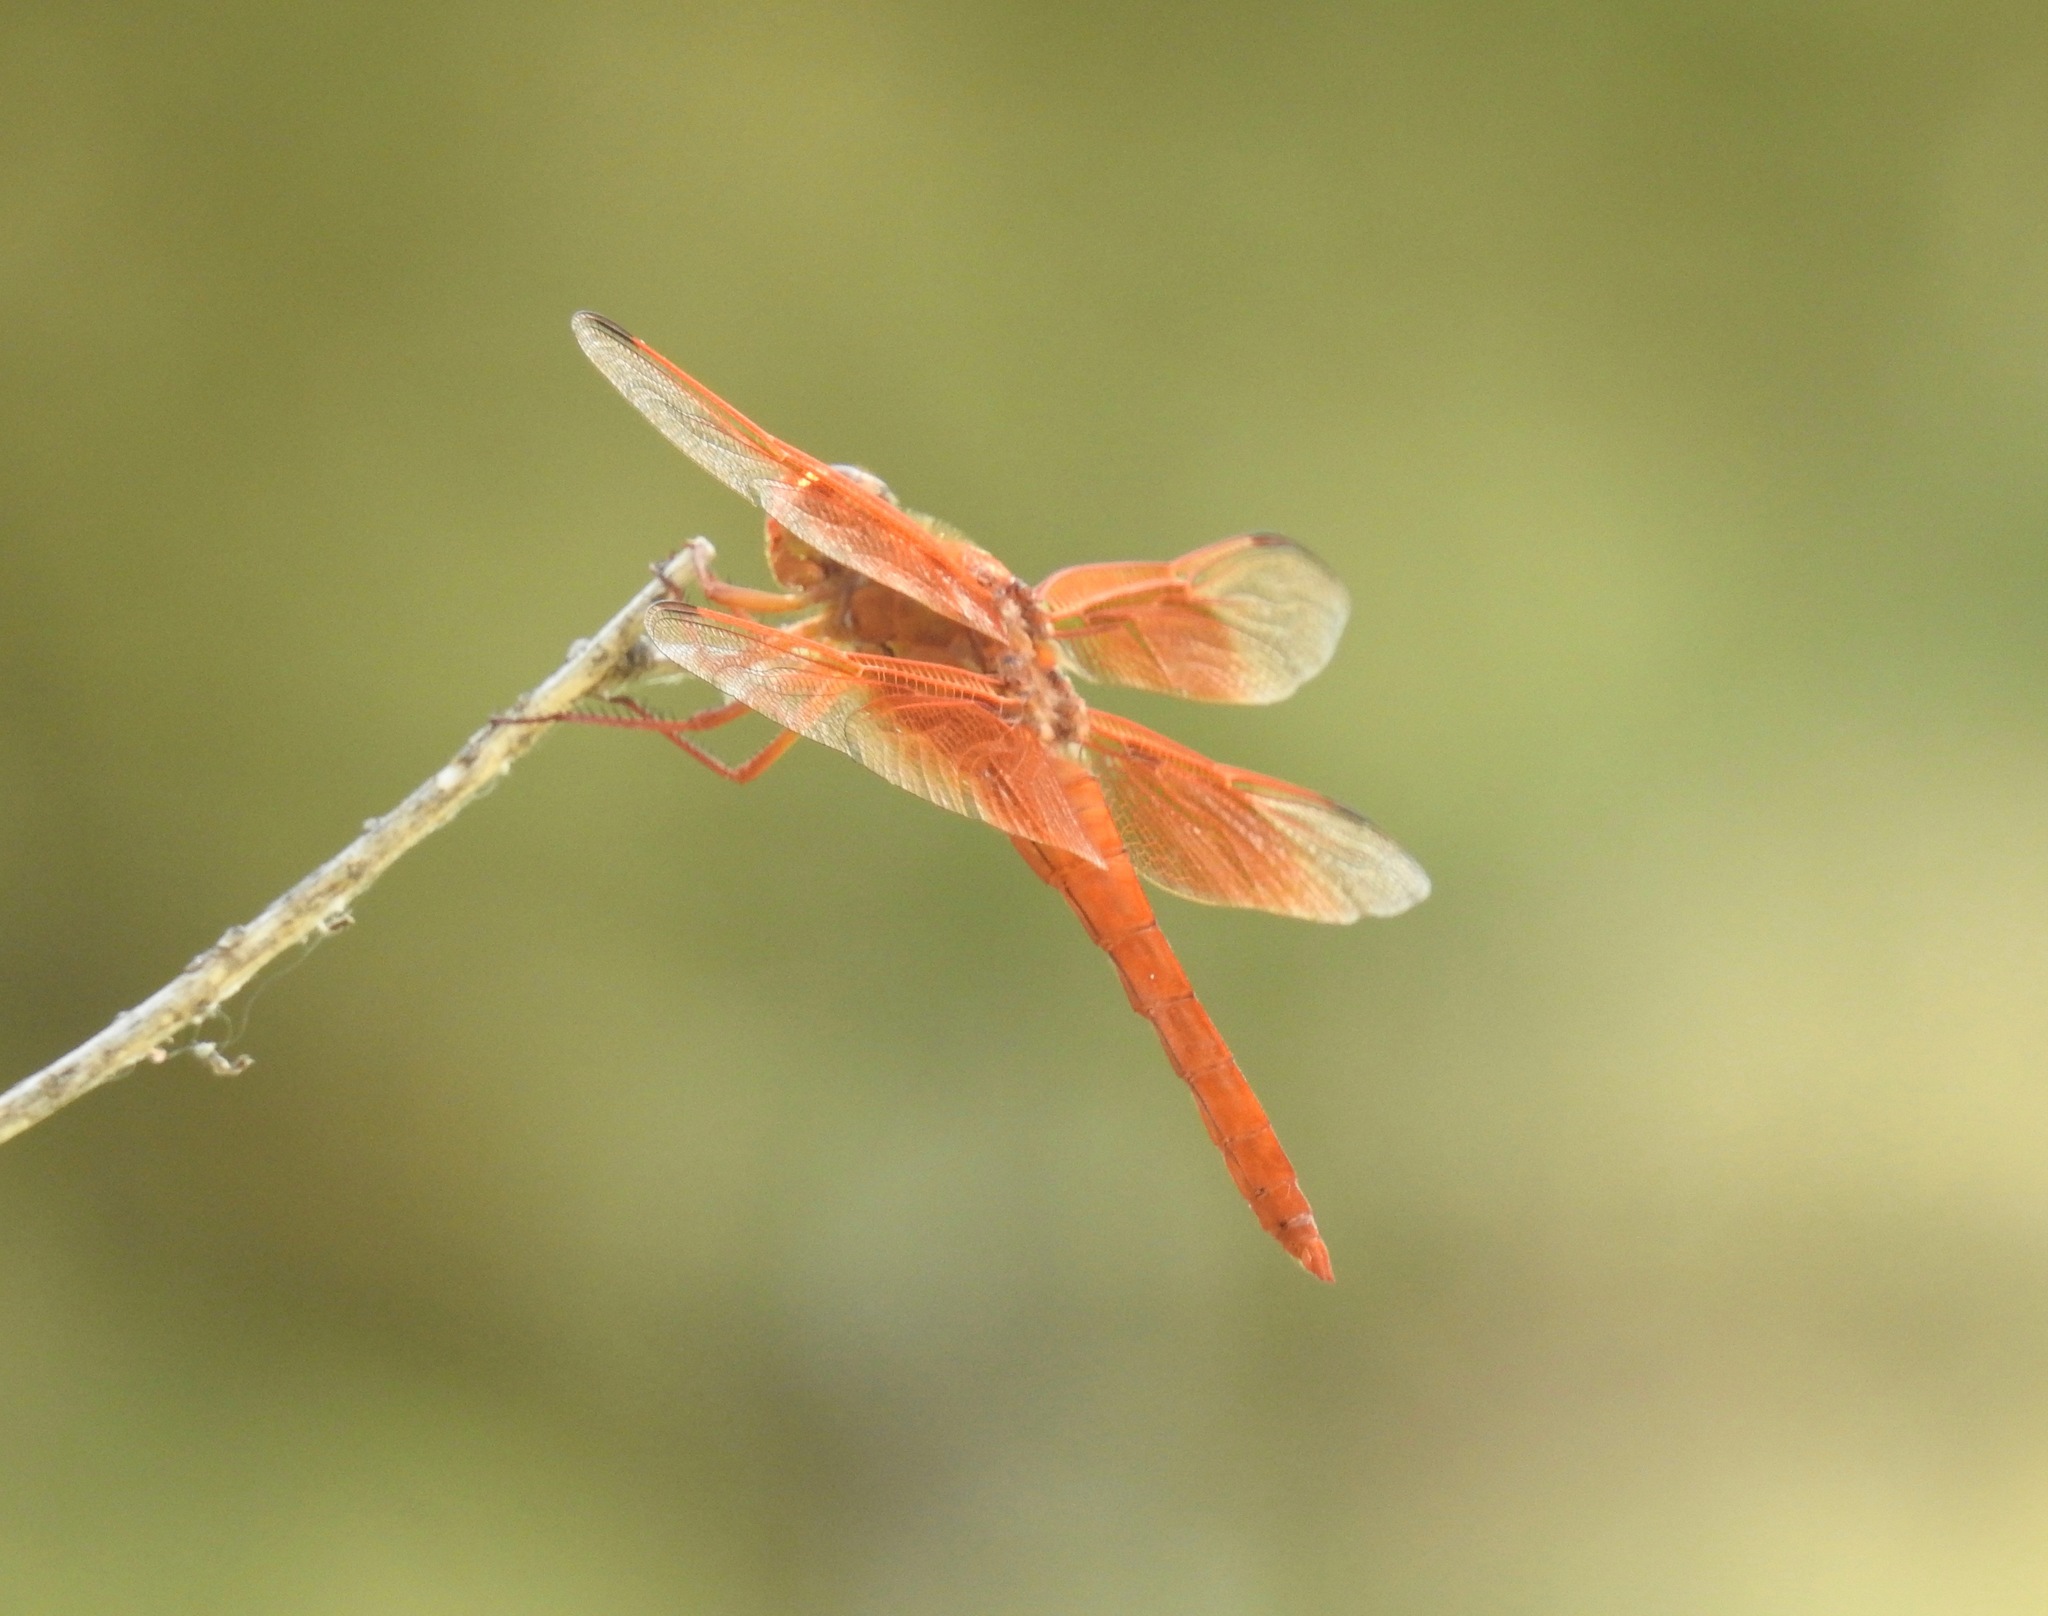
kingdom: Animalia
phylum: Arthropoda
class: Insecta
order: Odonata
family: Libellulidae
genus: Libellula
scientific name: Libellula saturata
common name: Flame skimmer
